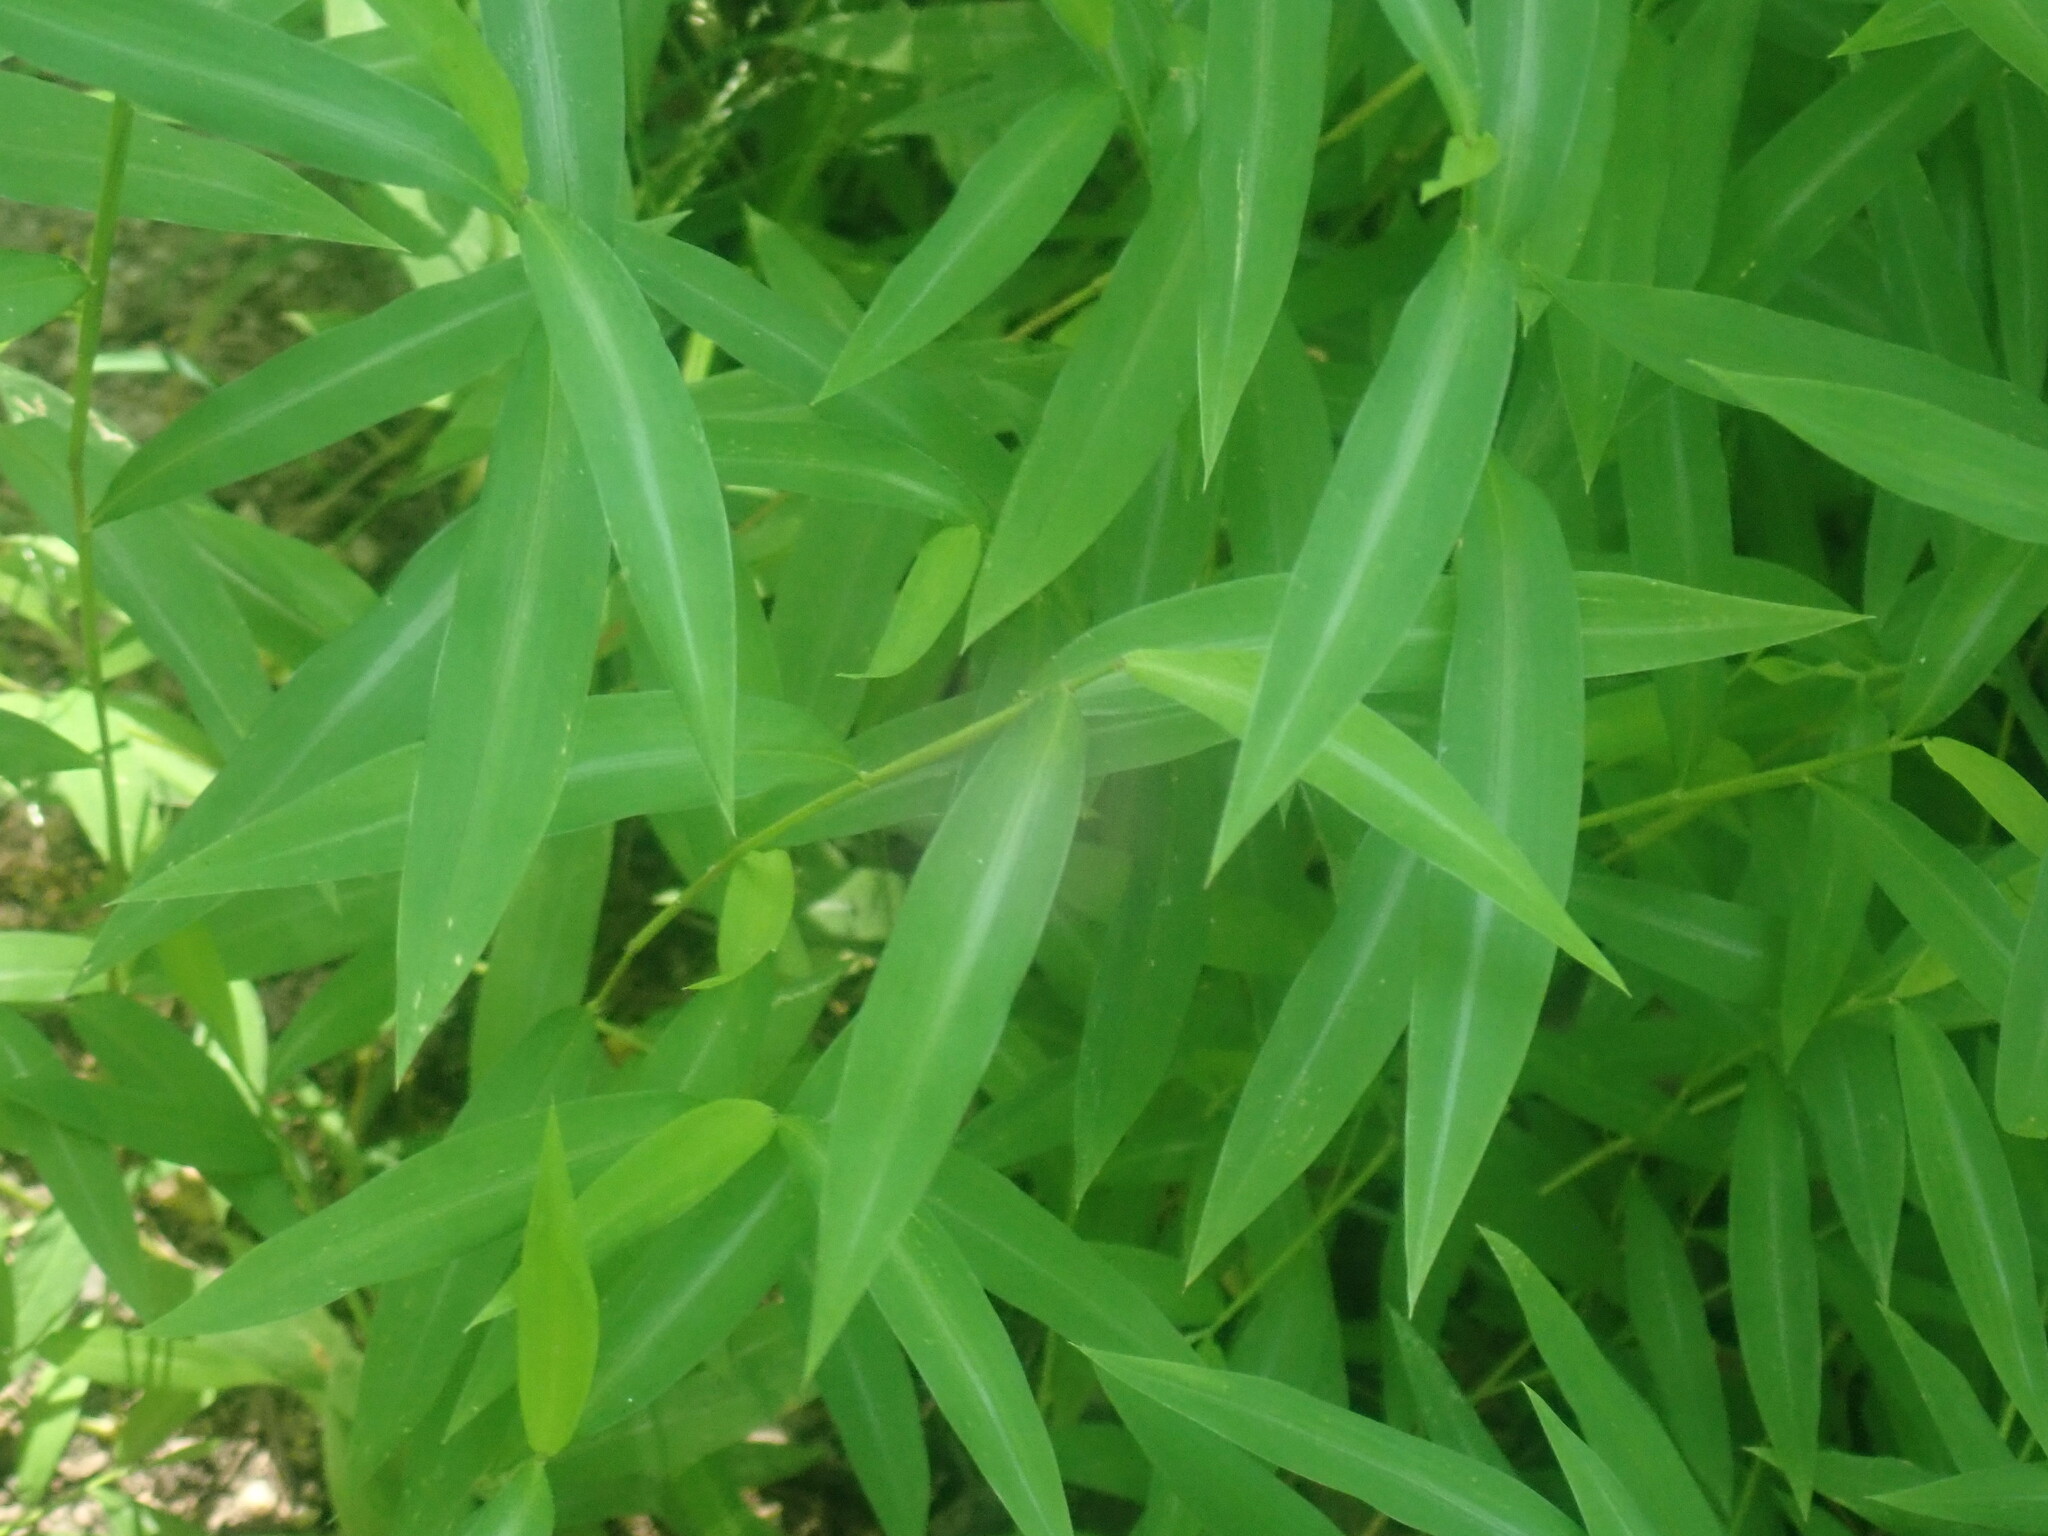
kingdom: Plantae
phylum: Tracheophyta
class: Liliopsida
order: Poales
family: Poaceae
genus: Microstegium
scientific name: Microstegium vimineum
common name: Japanese stiltgrass
